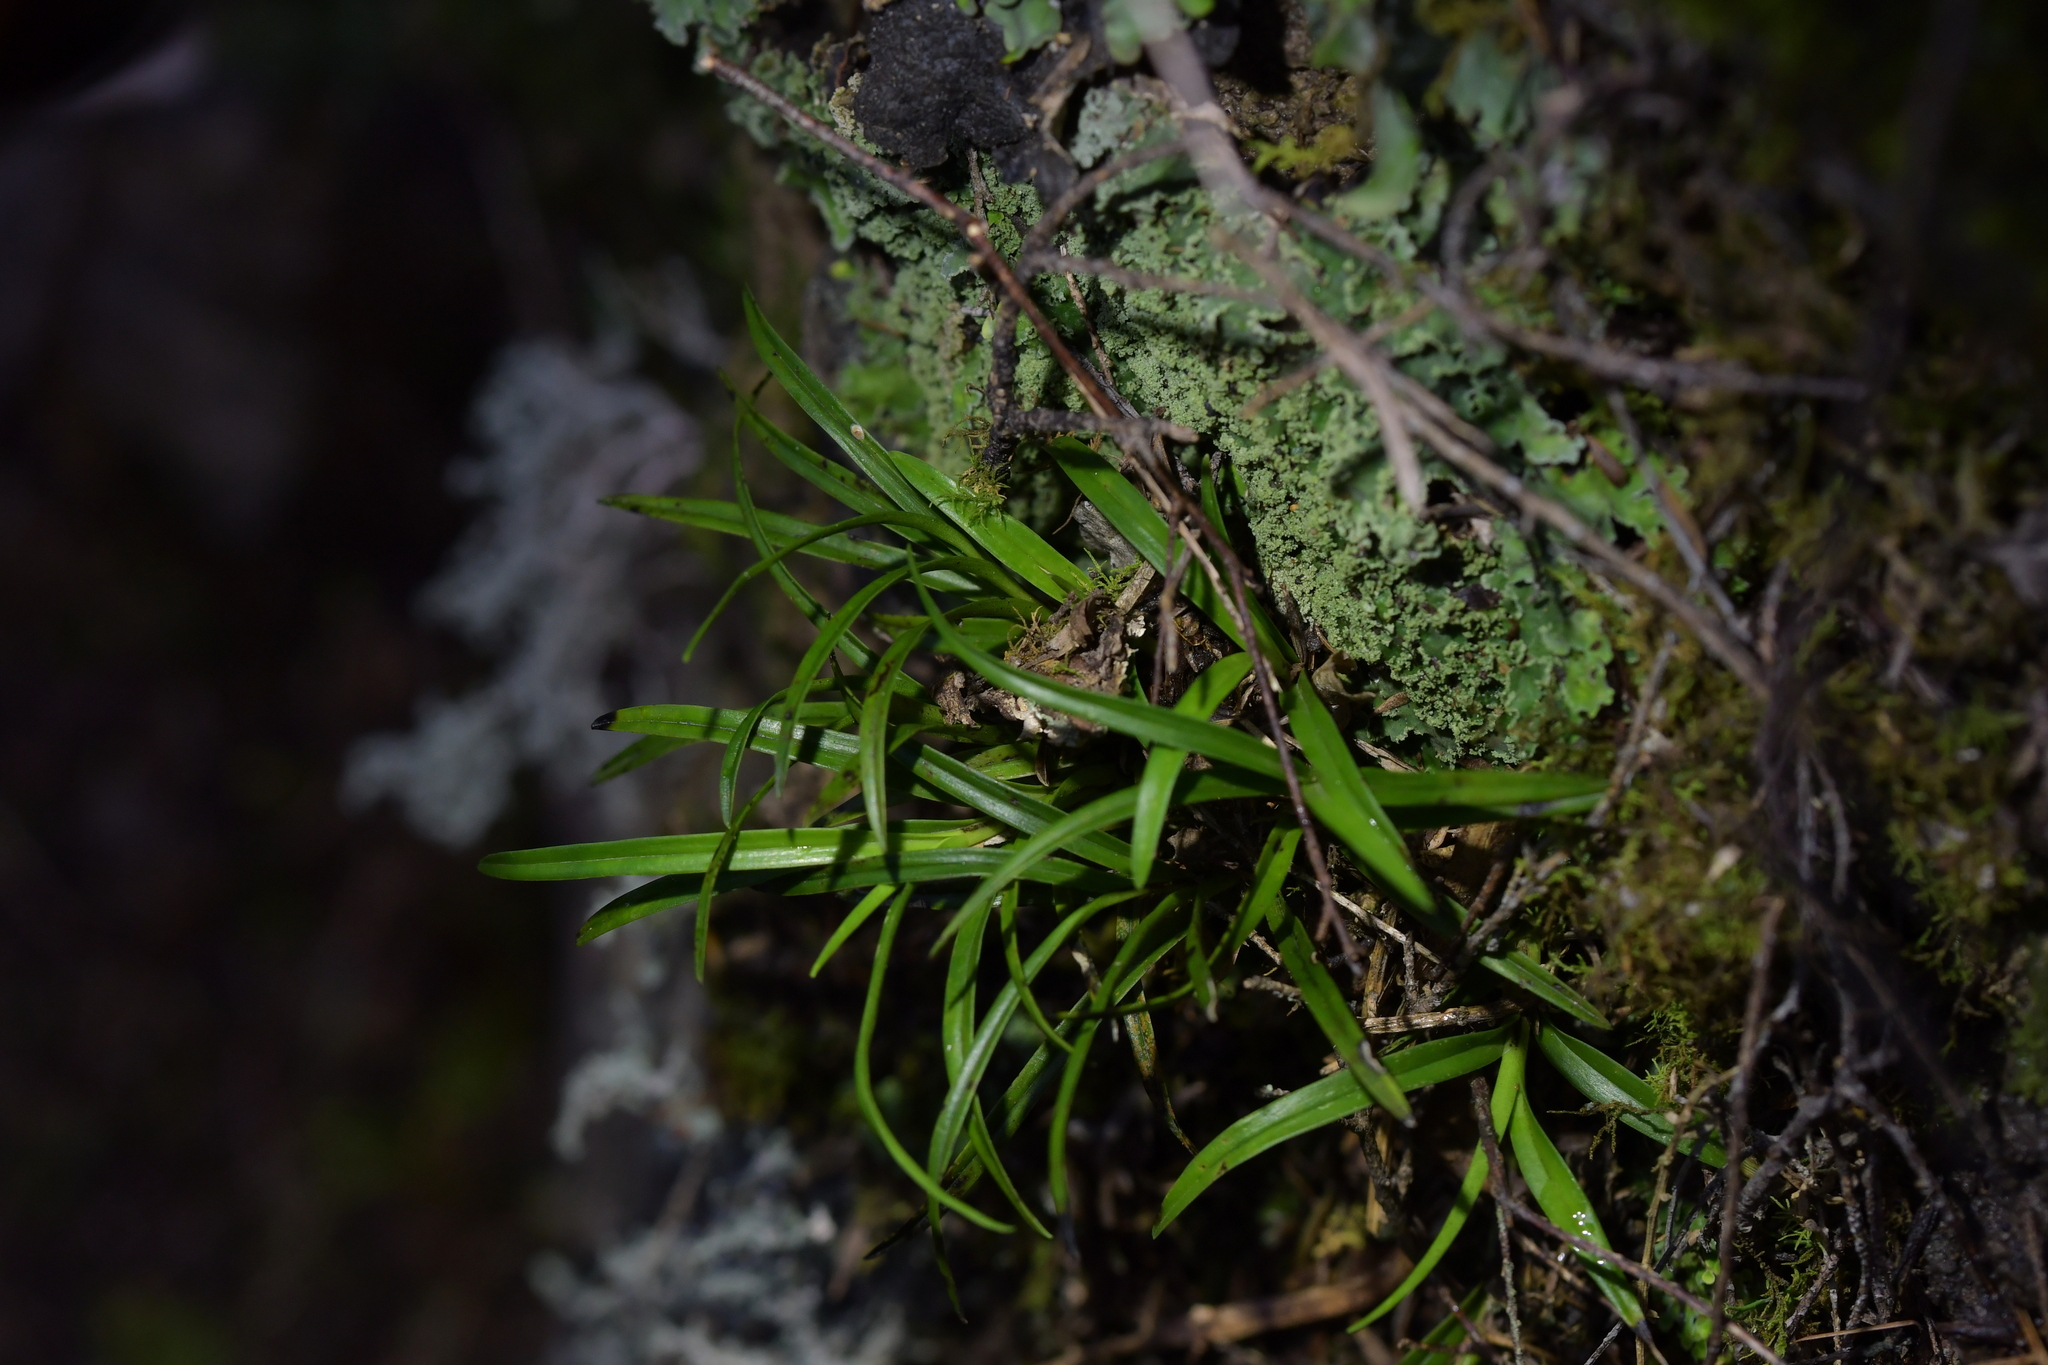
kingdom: Plantae
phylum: Tracheophyta
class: Liliopsida
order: Asparagales
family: Orchidaceae
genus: Earina
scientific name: Earina autumnalis
